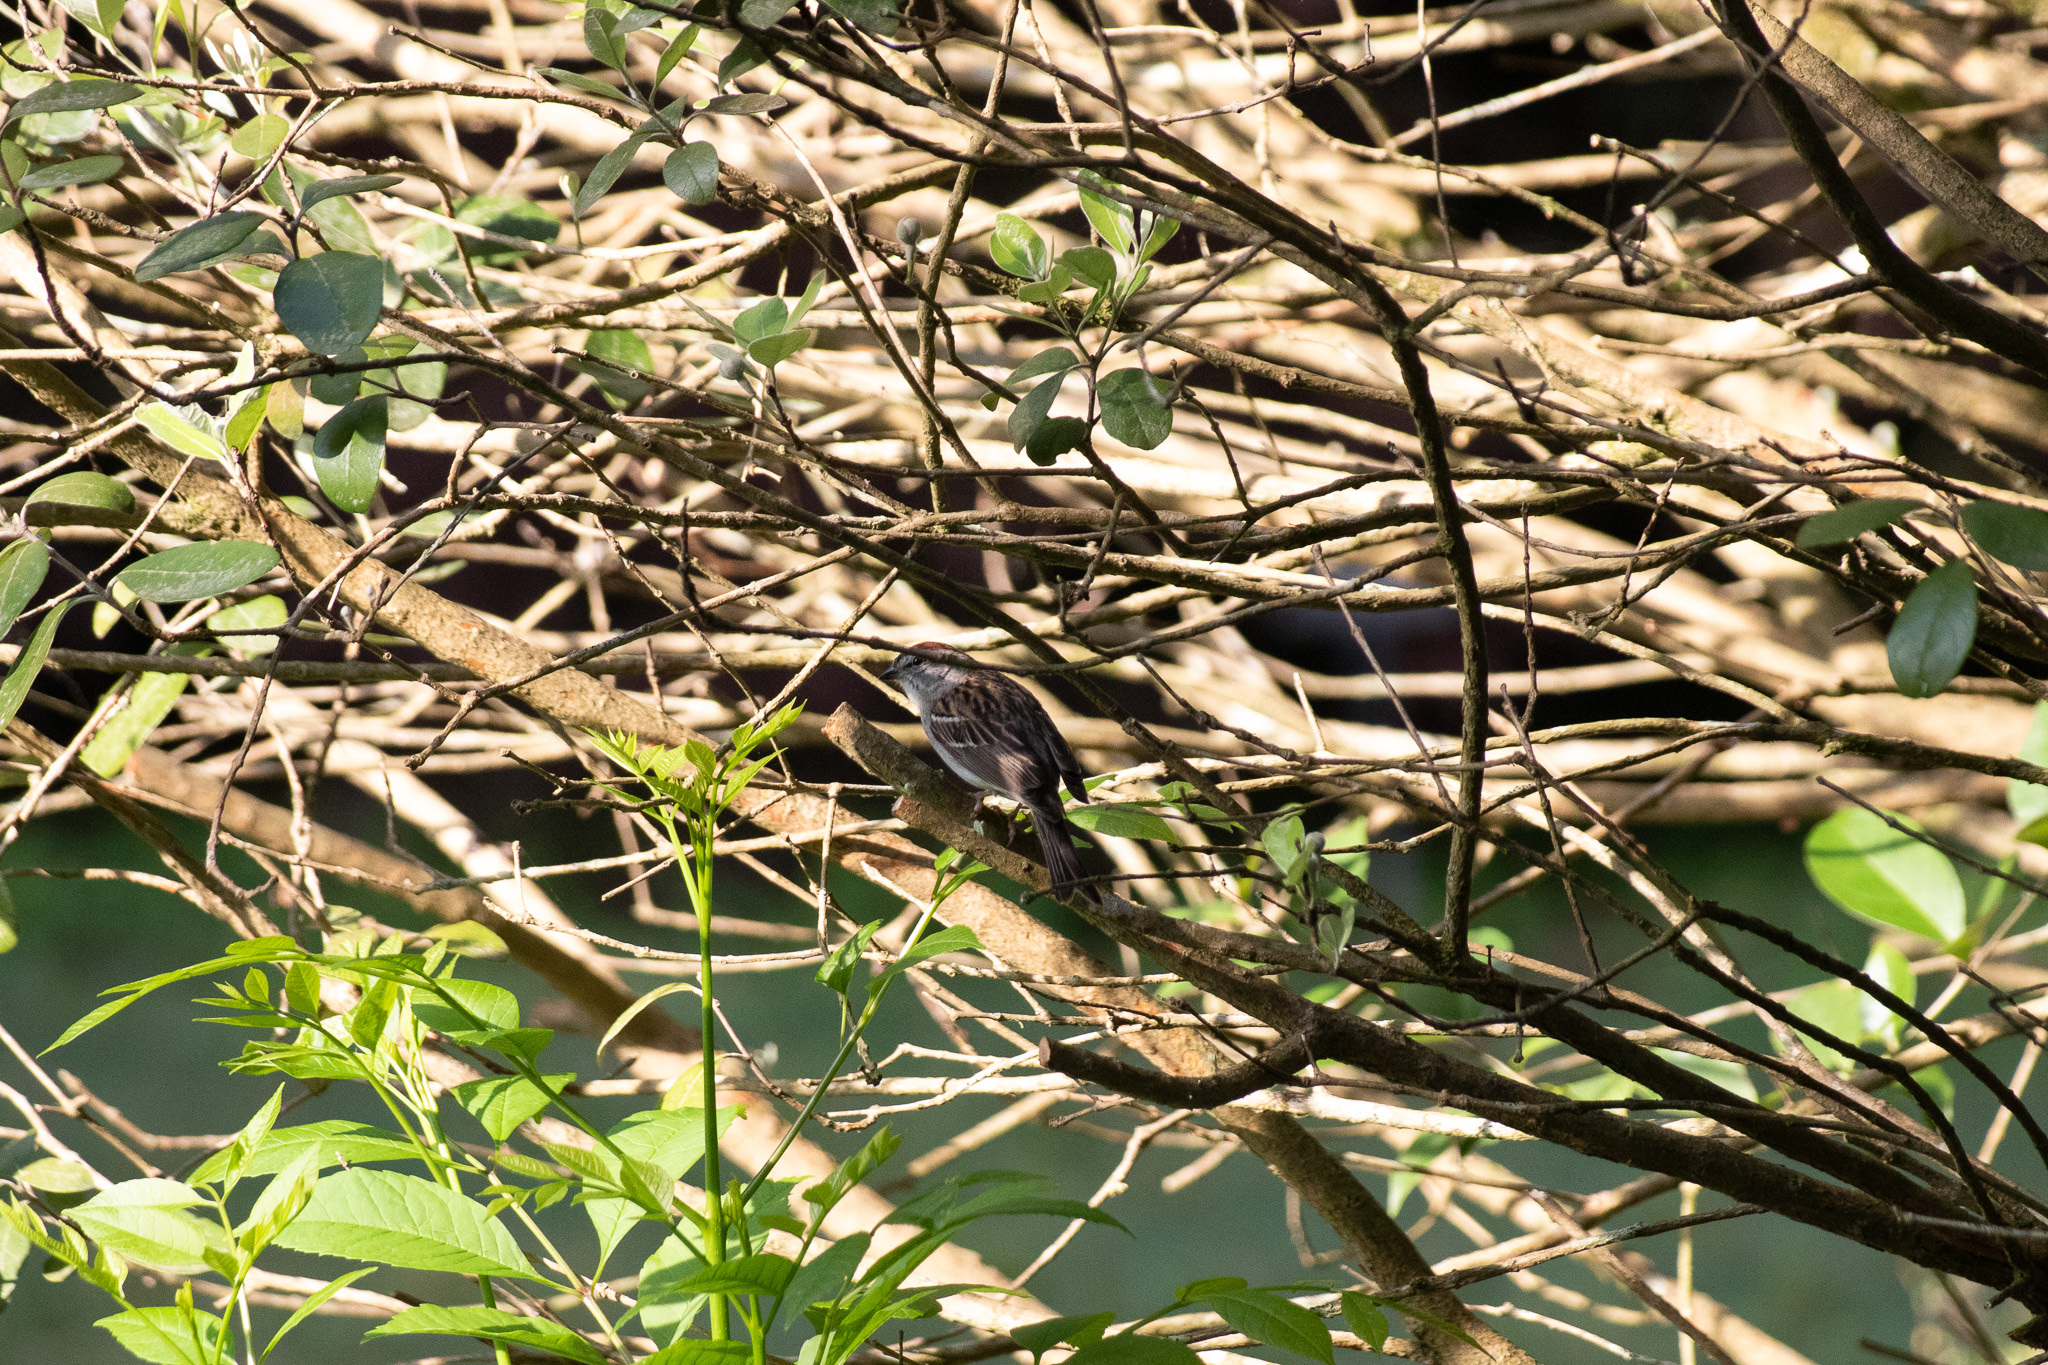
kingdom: Animalia
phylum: Chordata
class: Aves
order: Passeriformes
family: Passerellidae
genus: Spizella
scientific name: Spizella passerina
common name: Chipping sparrow
